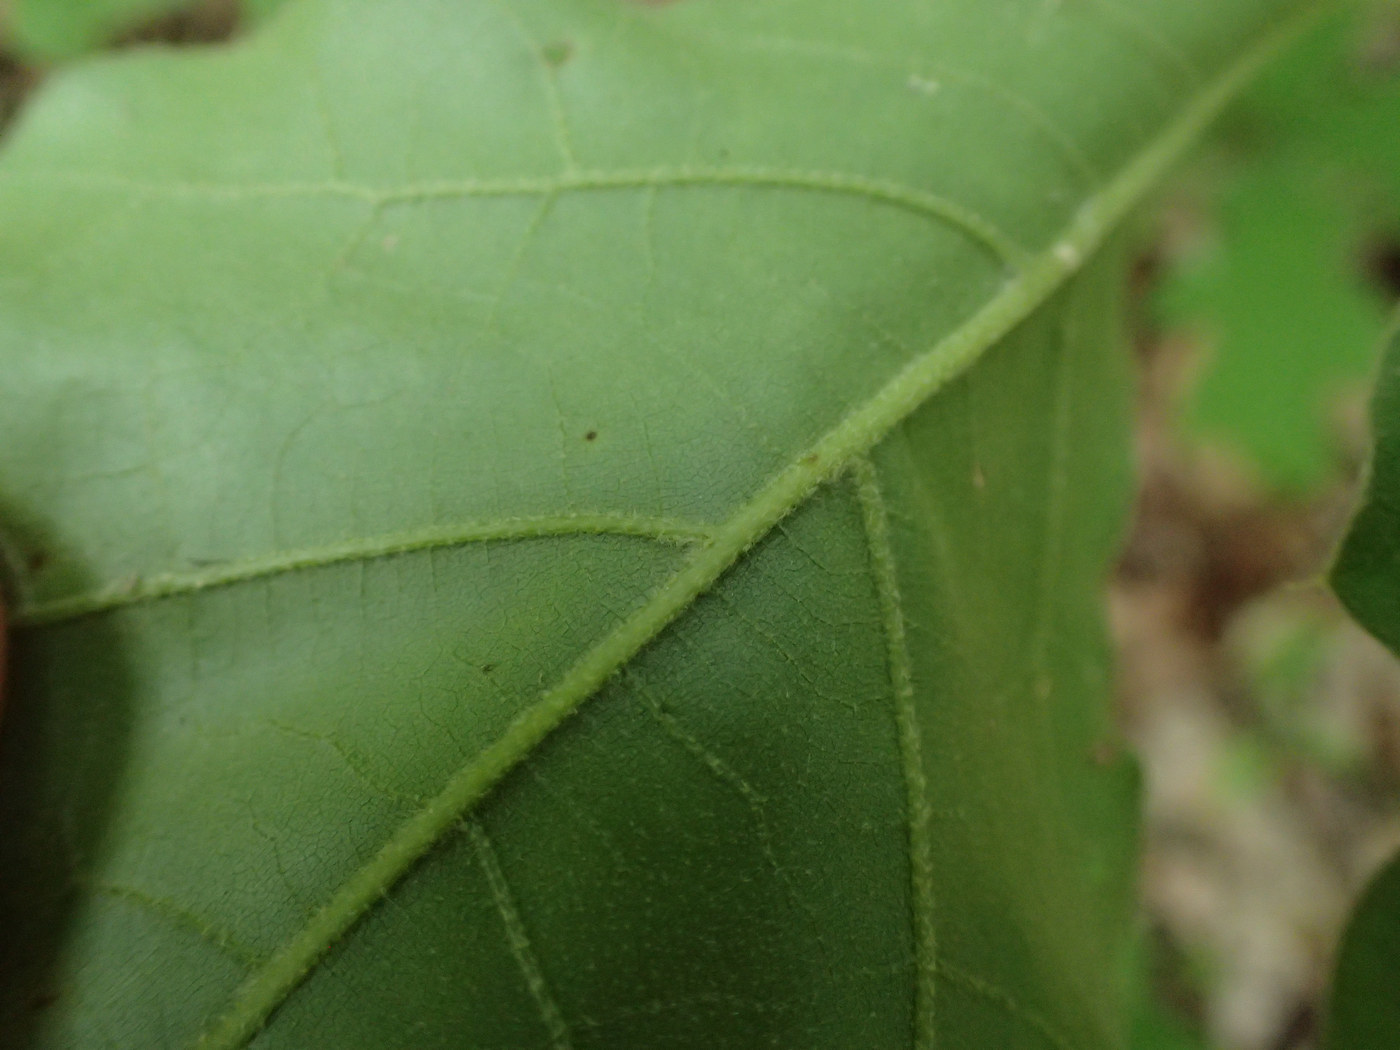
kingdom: Animalia
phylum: Arthropoda
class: Insecta
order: Diptera
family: Cecidomyiidae
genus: Macrodiplosis
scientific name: Macrodiplosis niveipila
